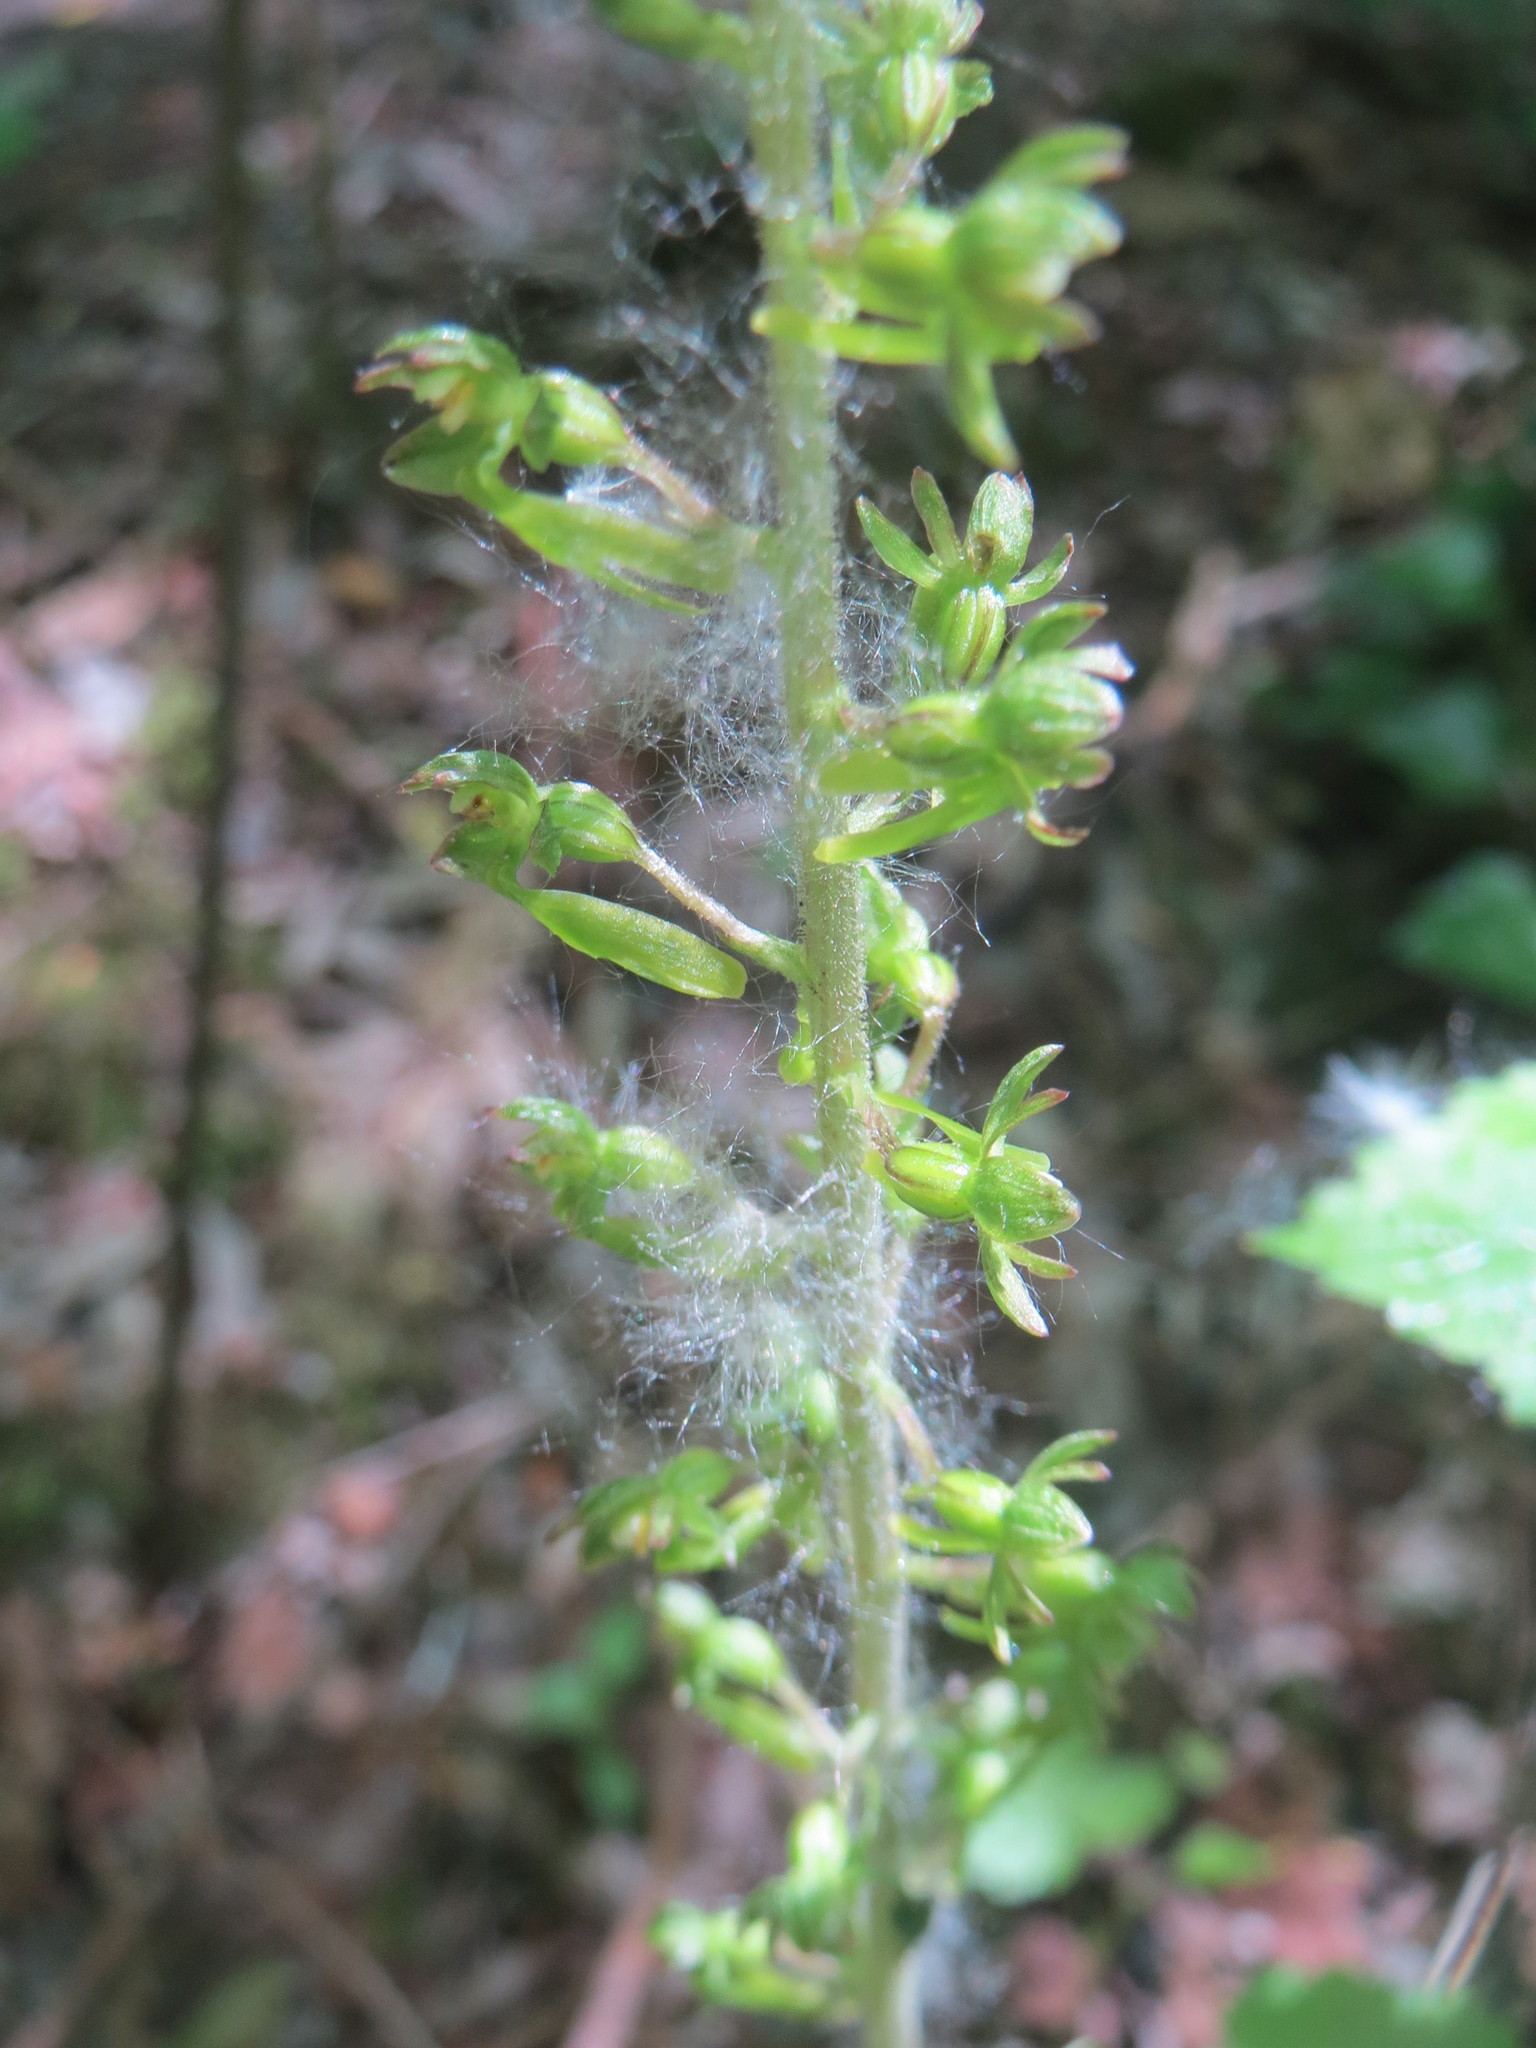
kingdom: Plantae
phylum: Tracheophyta
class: Liliopsida
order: Asparagales
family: Orchidaceae
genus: Neottia
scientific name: Neottia ovata
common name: Common twayblade
